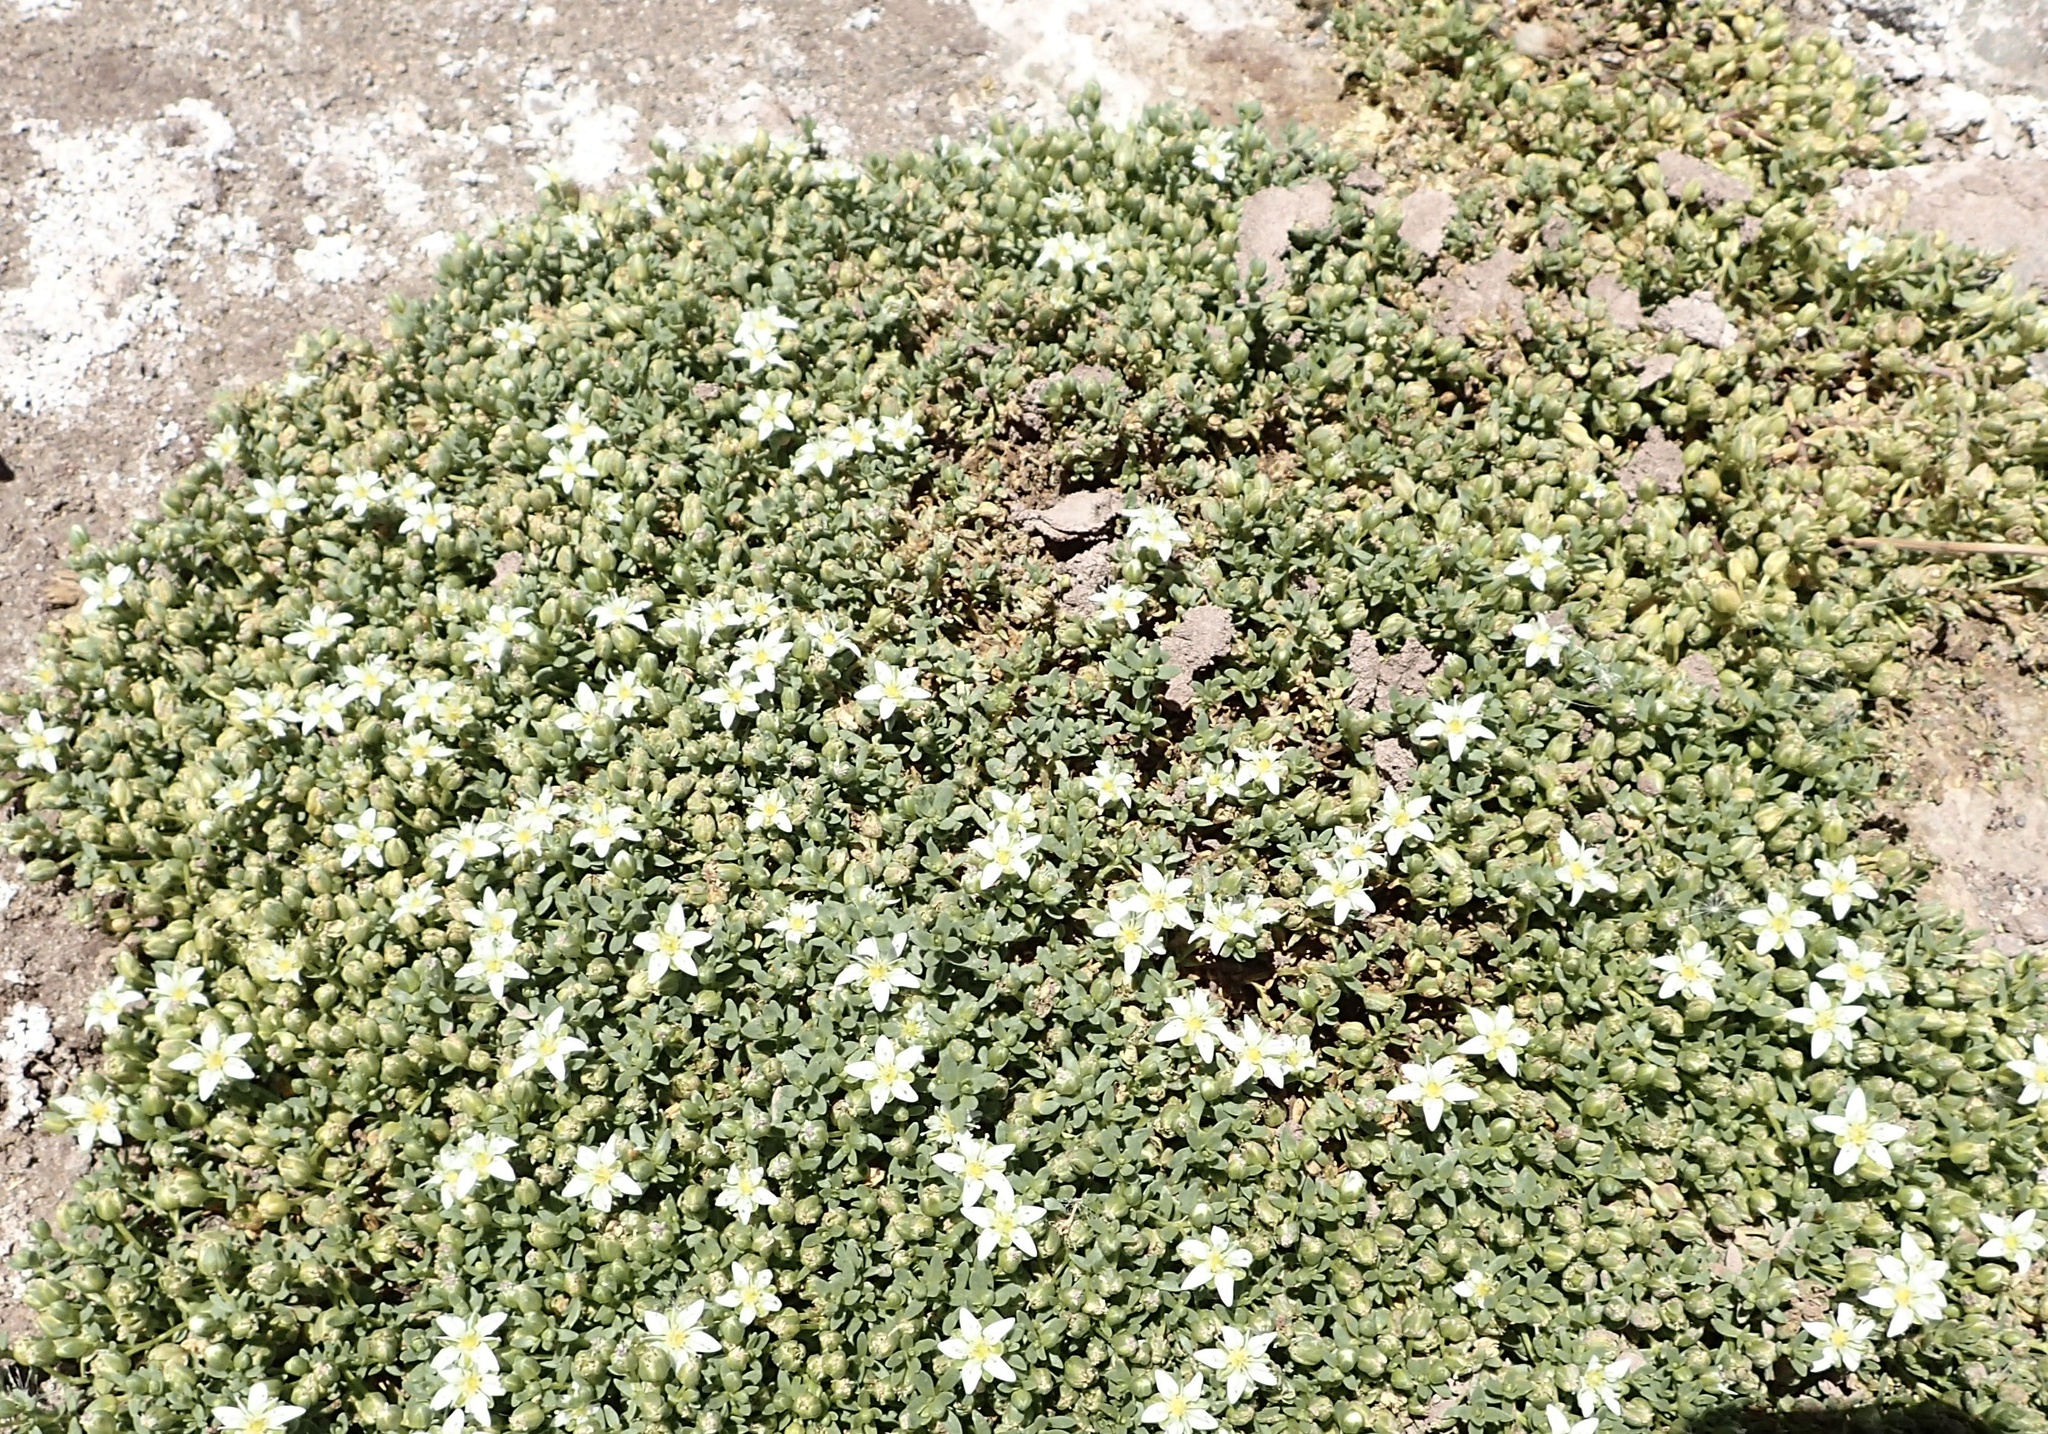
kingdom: Plantae
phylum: Tracheophyta
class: Magnoliopsida
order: Caryophyllales
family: Caryophyllaceae
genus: Arenaria
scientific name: Arenaria serpens
